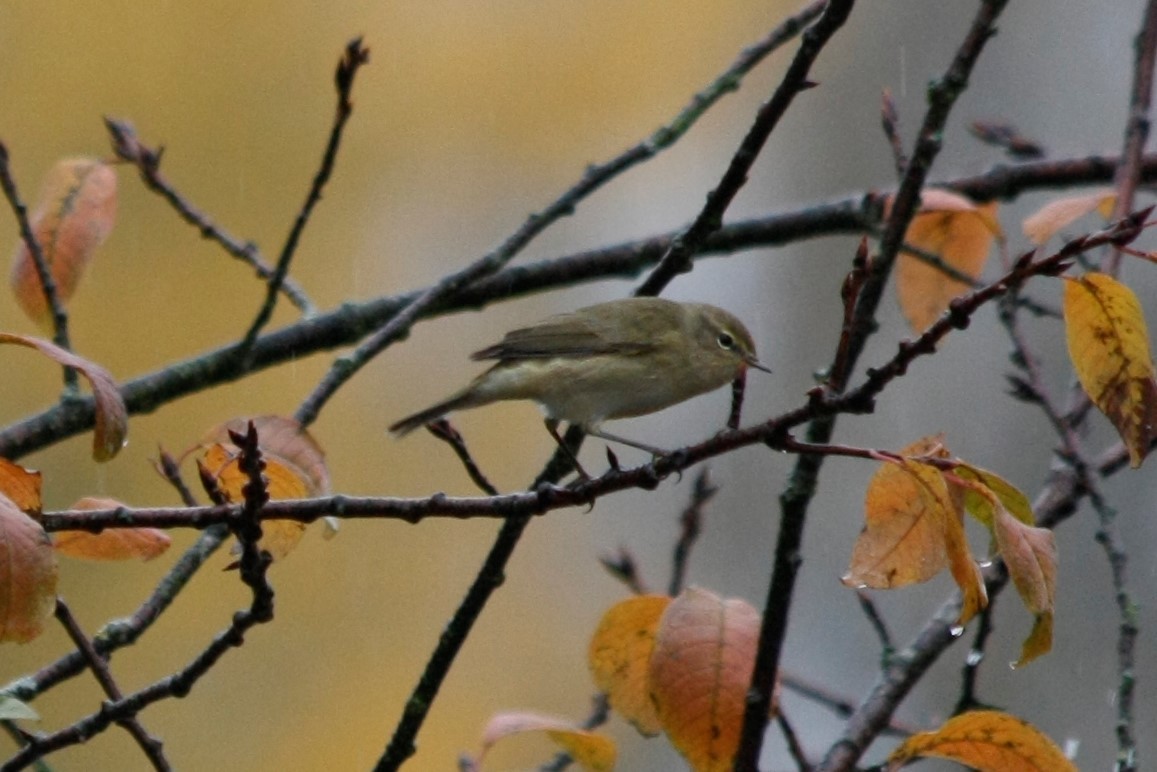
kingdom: Animalia
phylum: Chordata
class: Aves
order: Passeriformes
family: Phylloscopidae
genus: Phylloscopus
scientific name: Phylloscopus collybita
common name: Common chiffchaff
